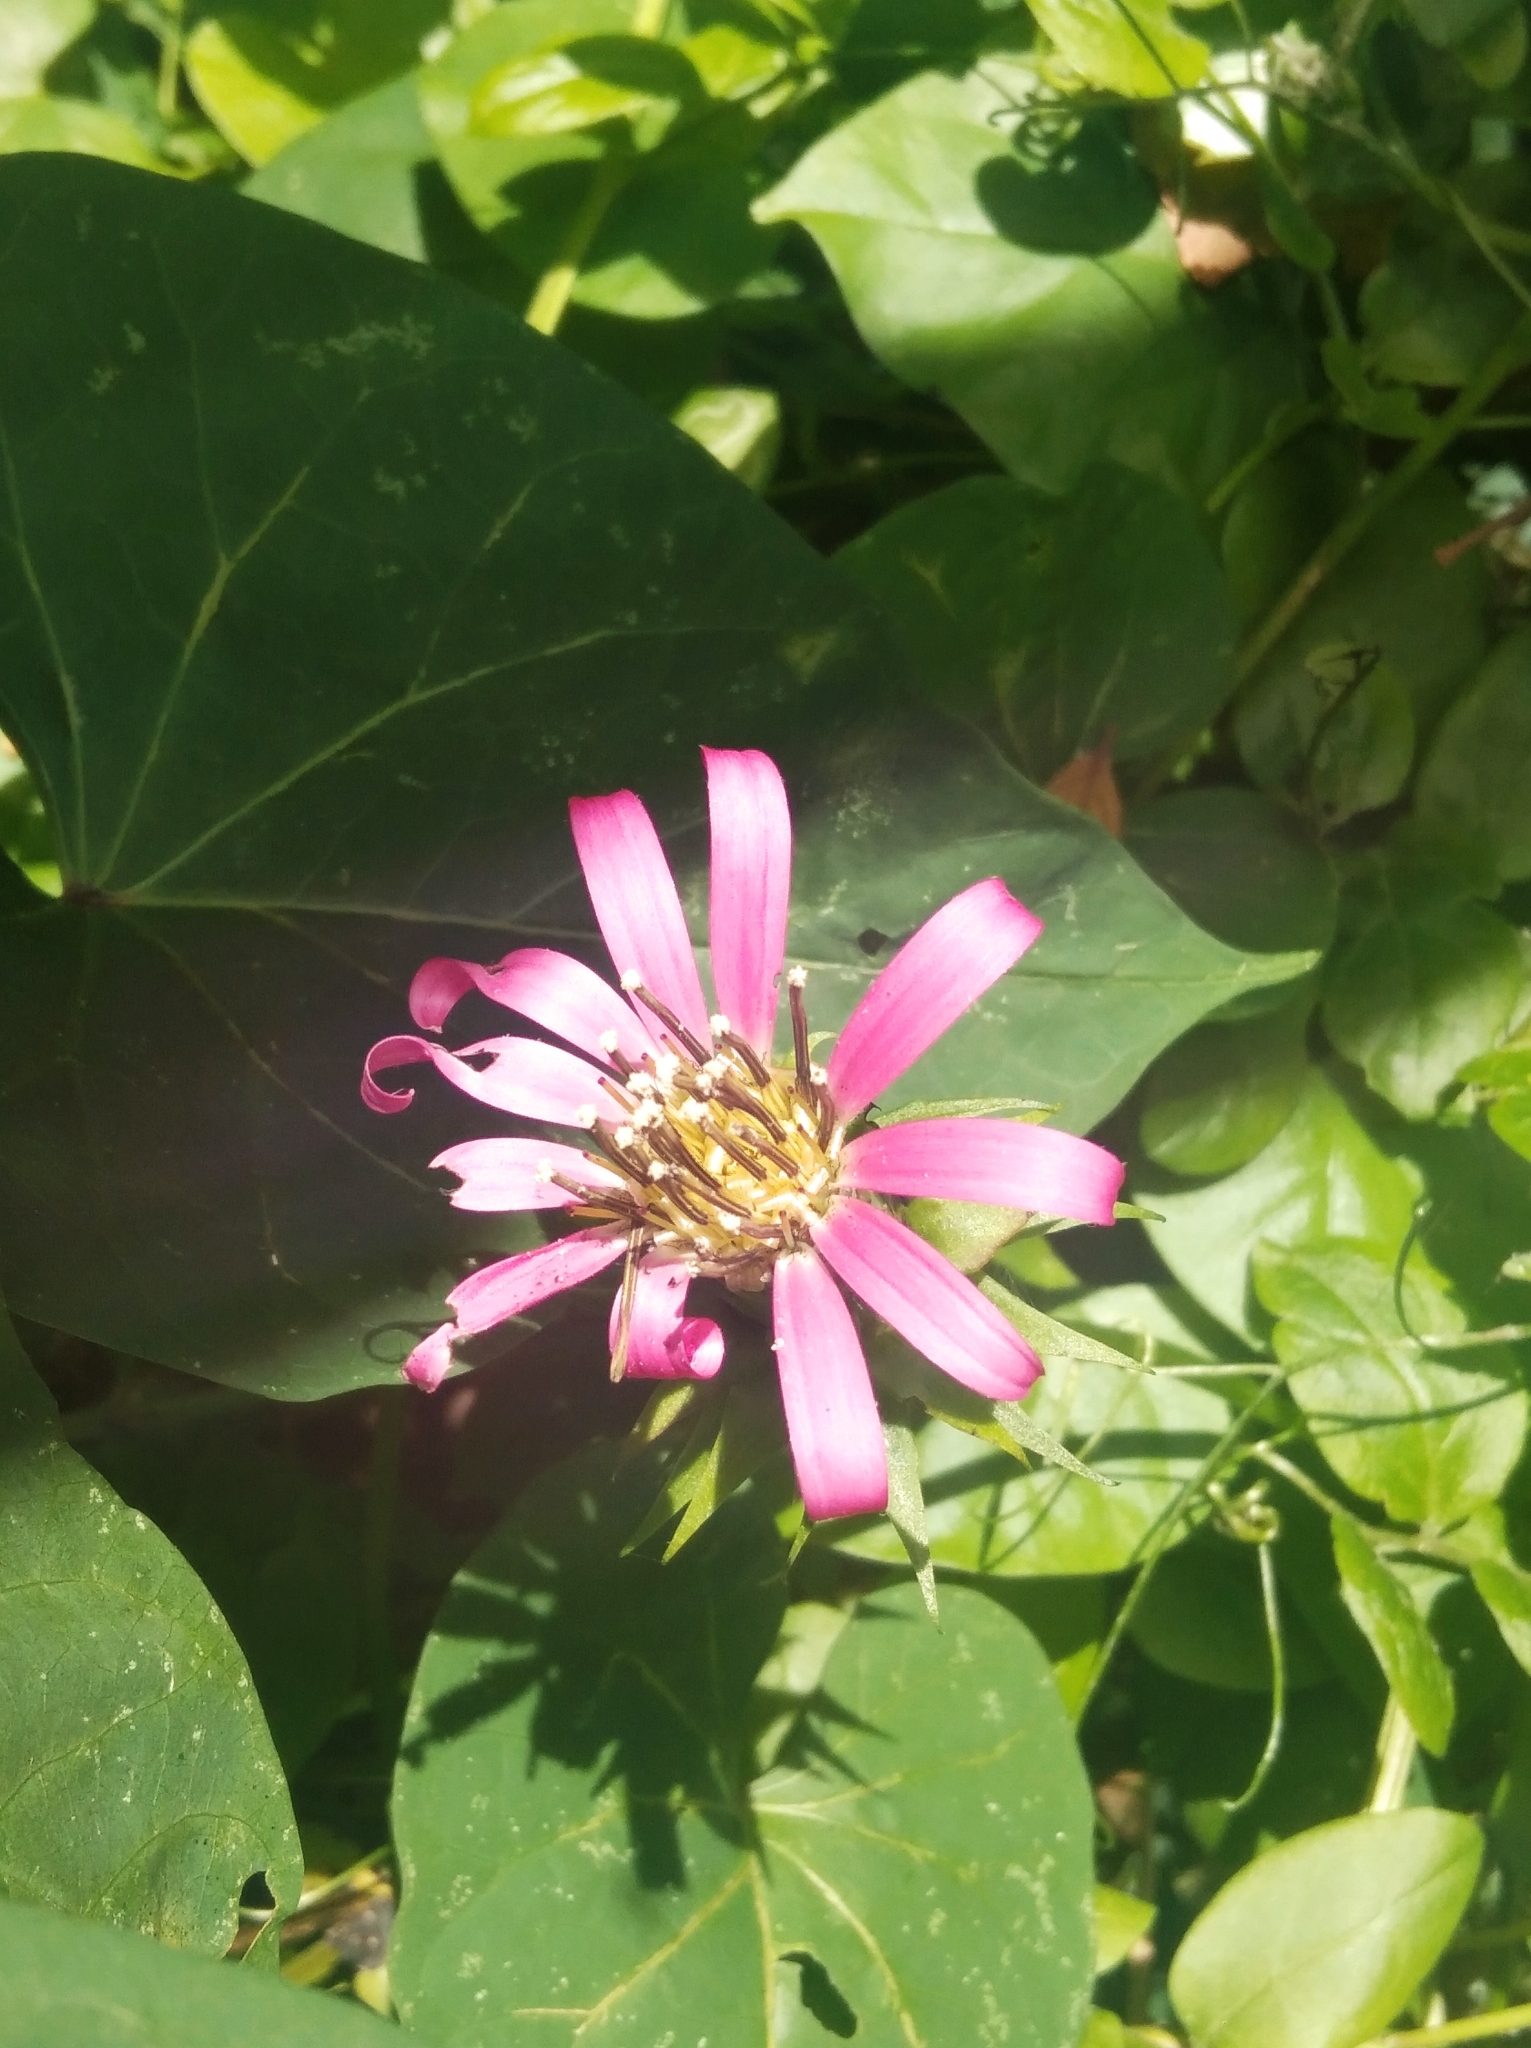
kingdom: Plantae
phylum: Tracheophyta
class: Magnoliopsida
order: Asterales
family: Asteraceae
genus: Mutisia
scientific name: Mutisia speciosa
